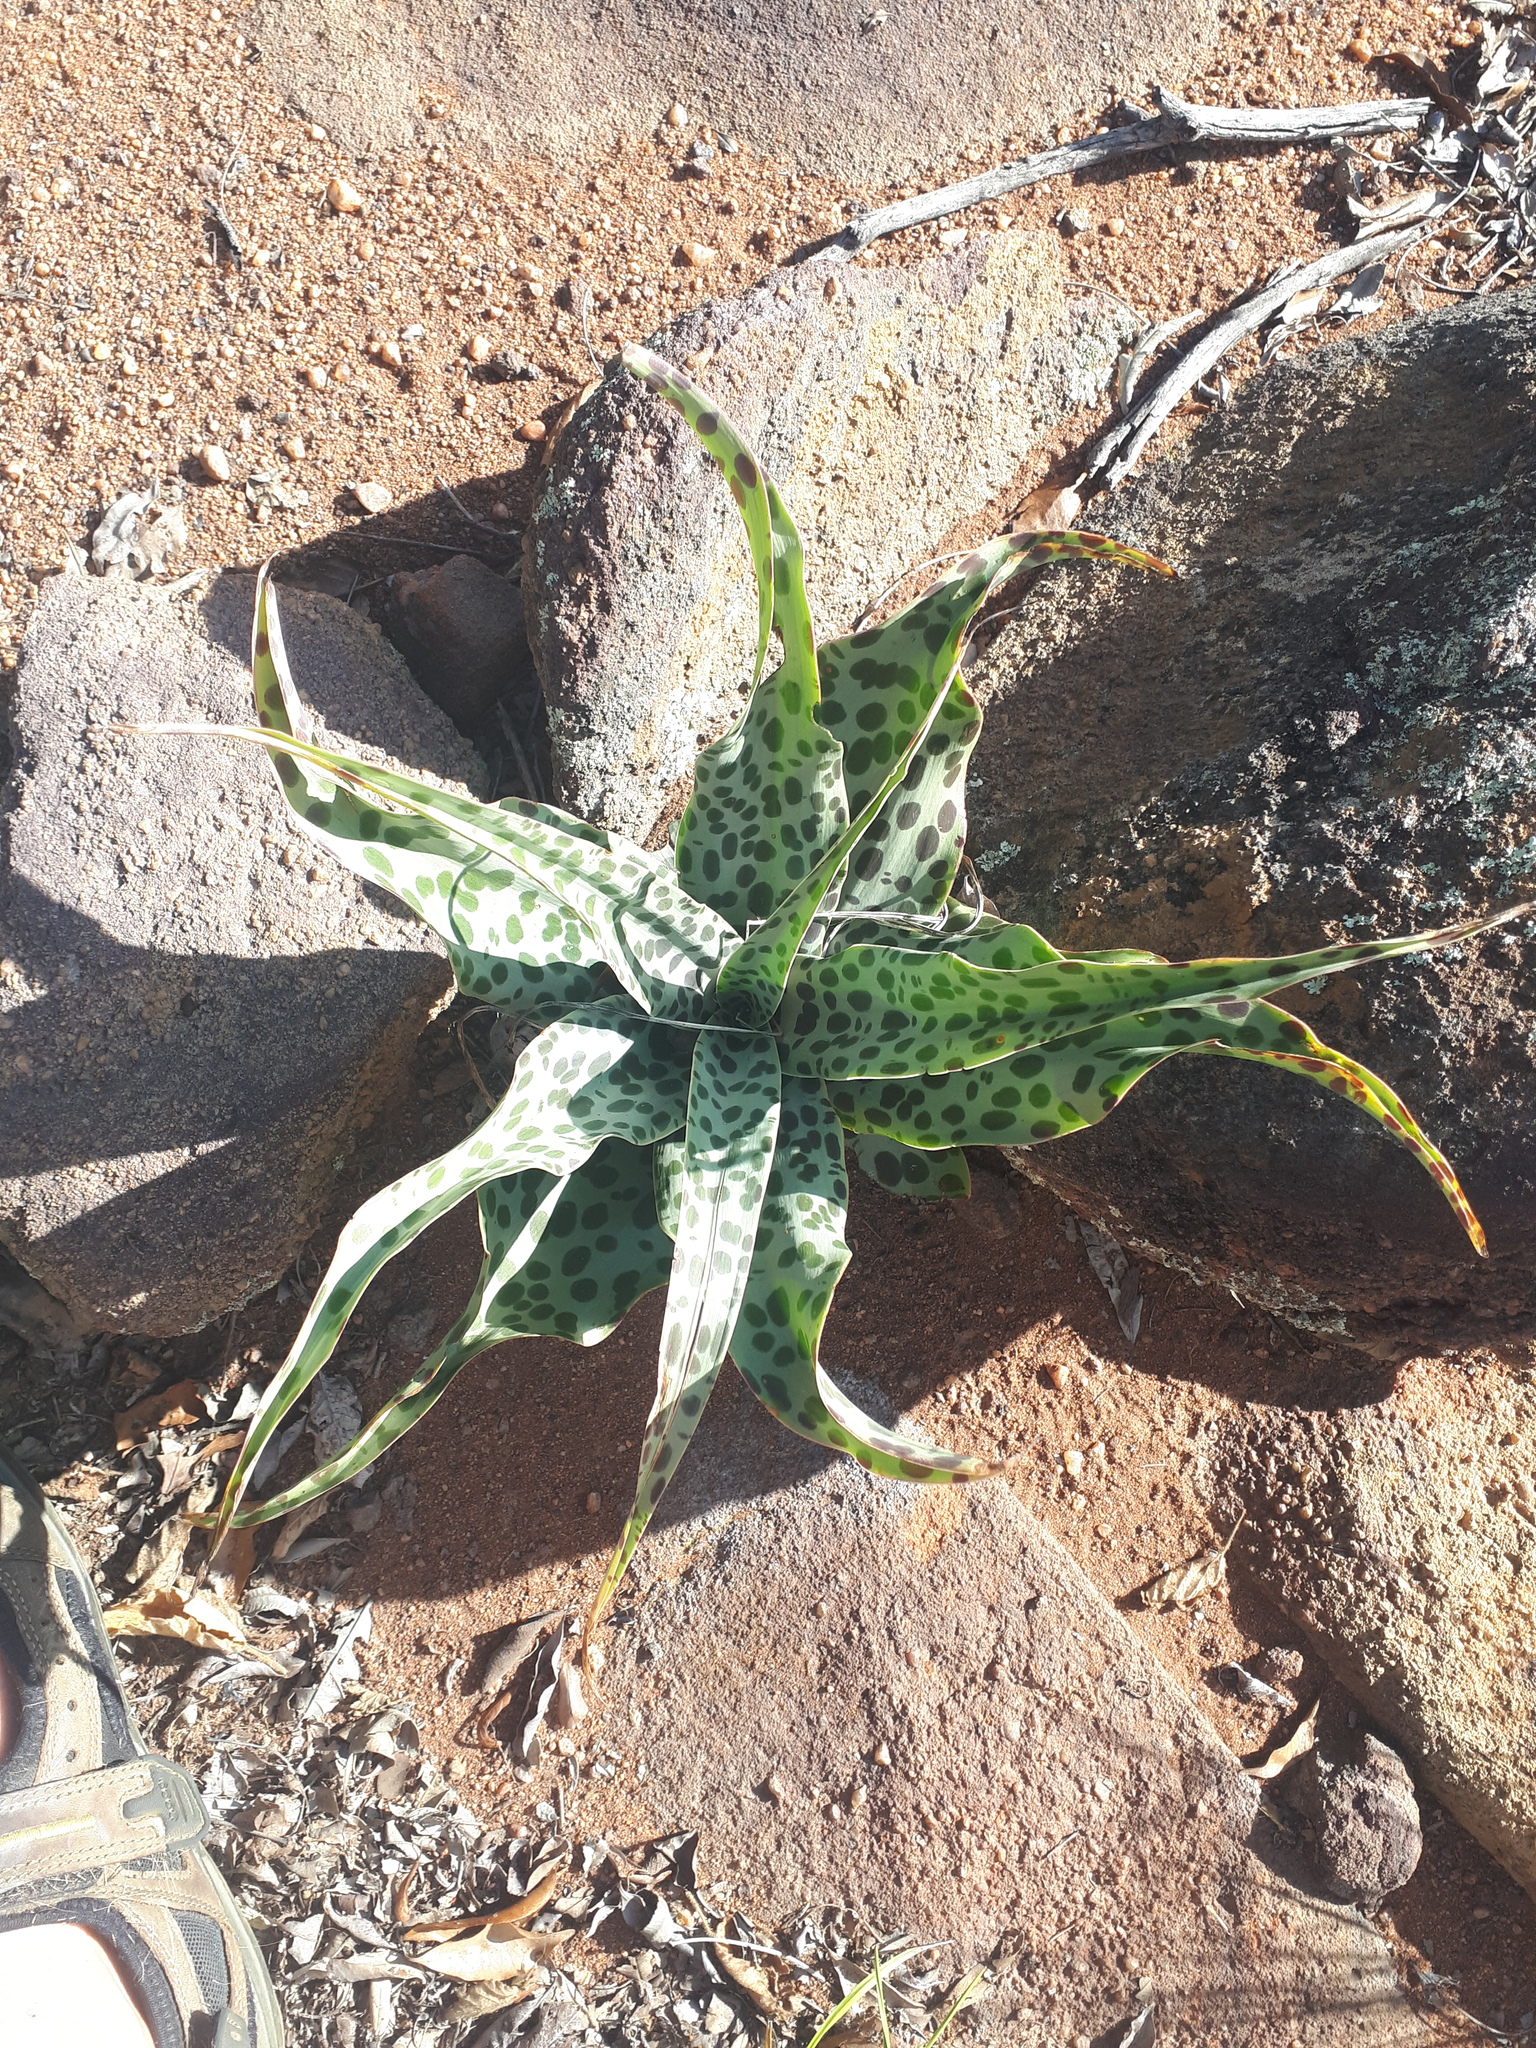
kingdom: Plantae
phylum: Tracheophyta
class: Liliopsida
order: Asparagales
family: Asparagaceae
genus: Ledebouria
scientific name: Ledebouria inquinata
